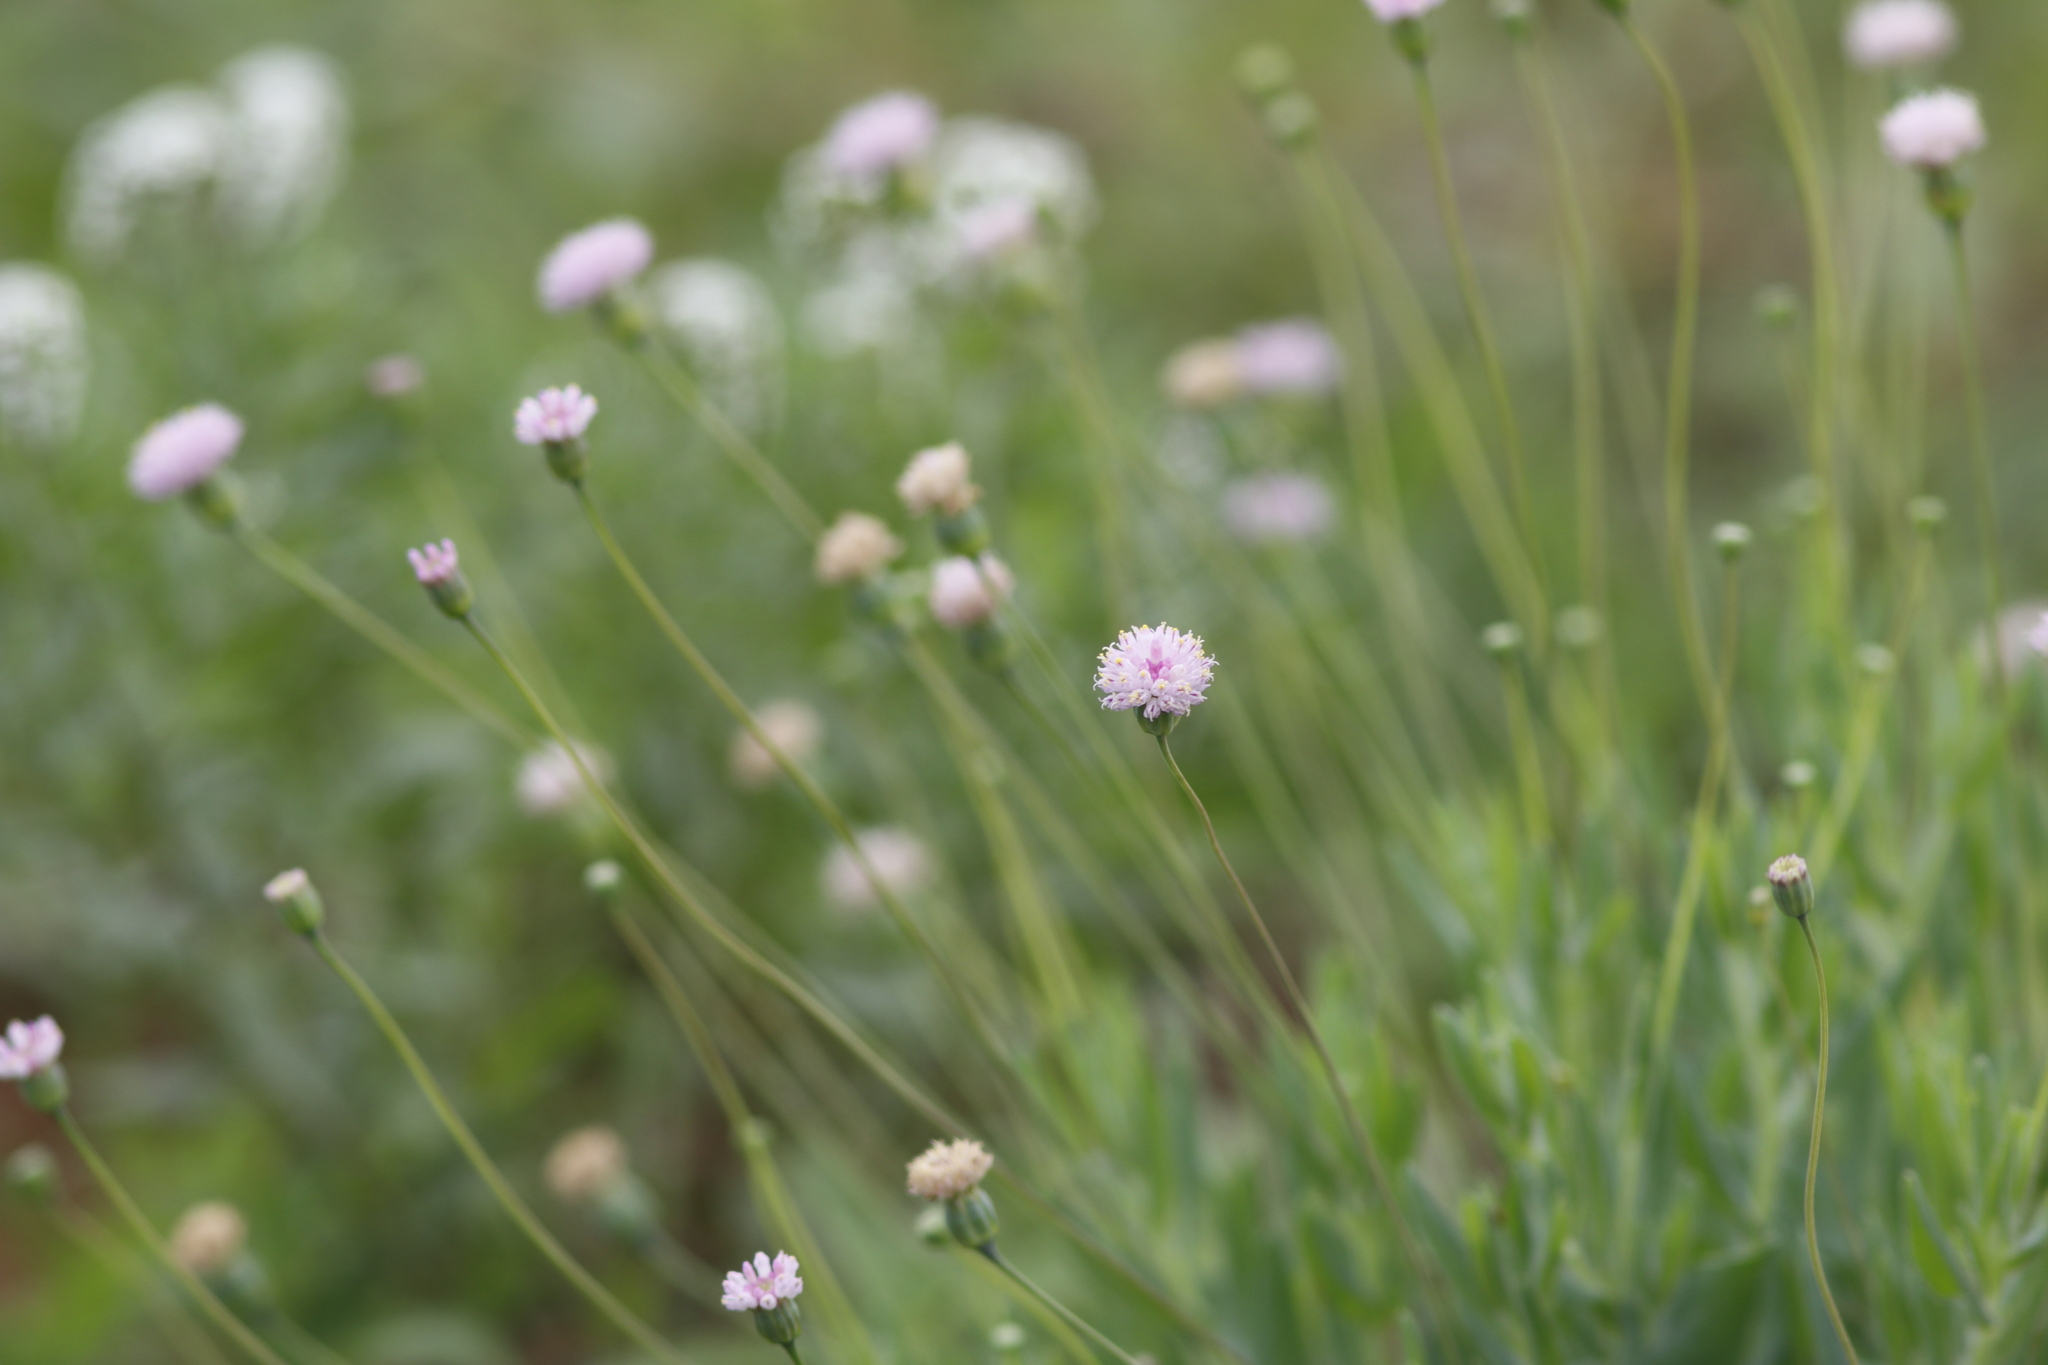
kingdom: Plantae
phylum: Tracheophyta
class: Magnoliopsida
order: Asterales
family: Asteraceae
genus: Emilia
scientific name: Emilia transvaalensis
